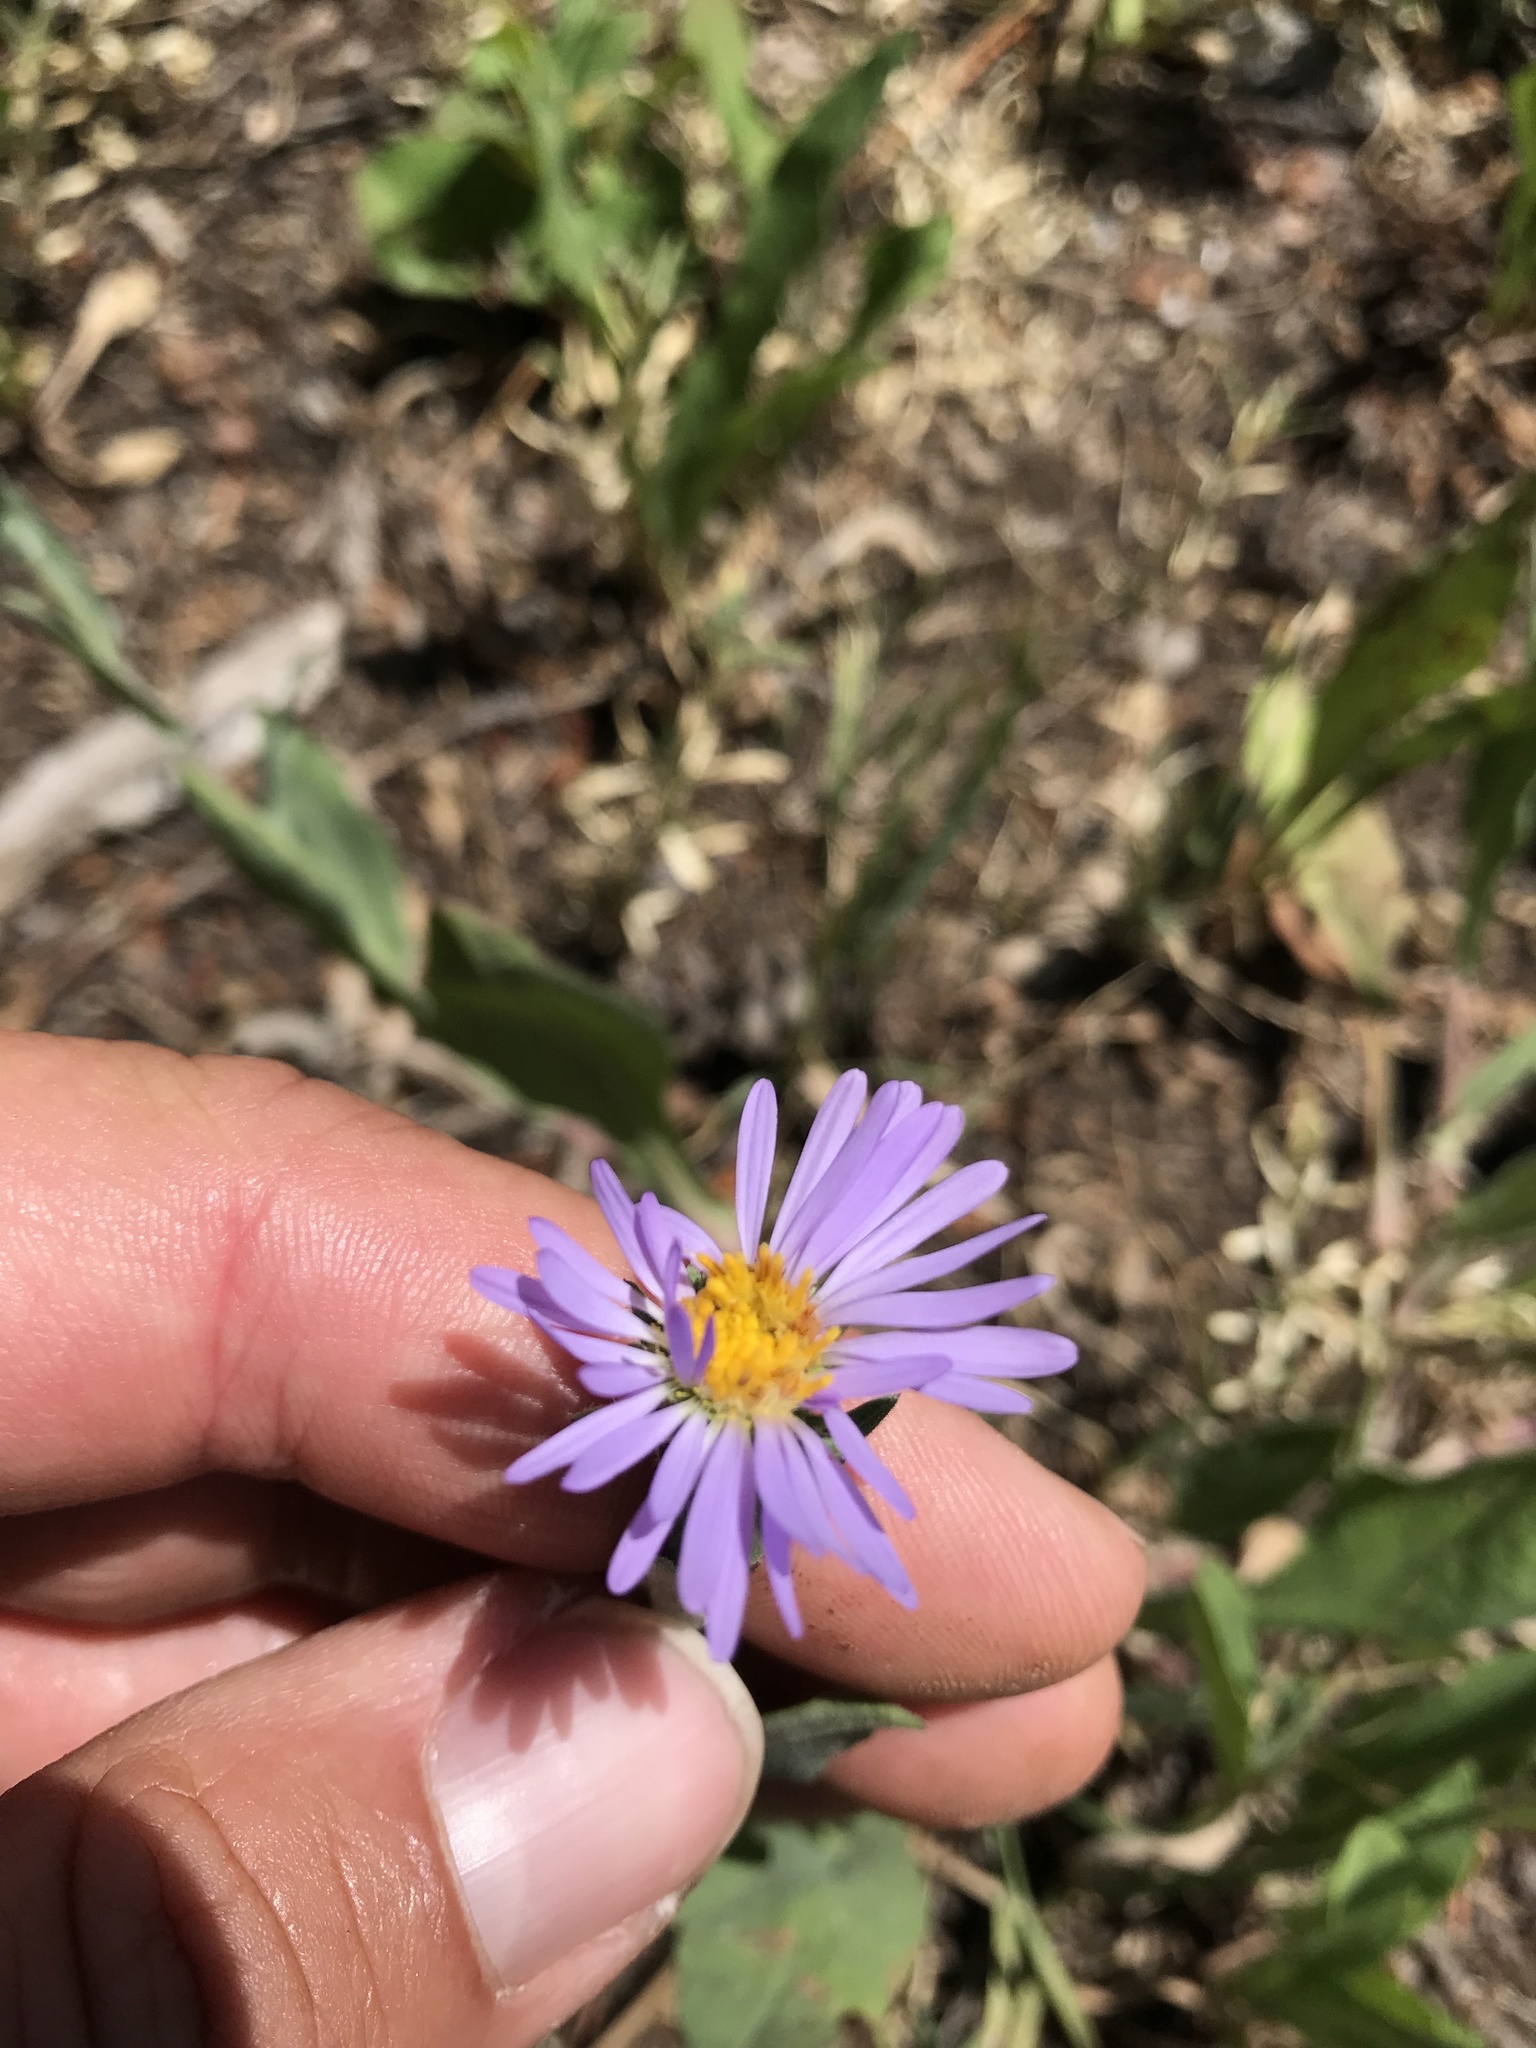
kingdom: Plantae
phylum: Tracheophyta
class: Magnoliopsida
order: Asterales
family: Asteraceae
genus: Symphyotrichum
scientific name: Symphyotrichum molle
